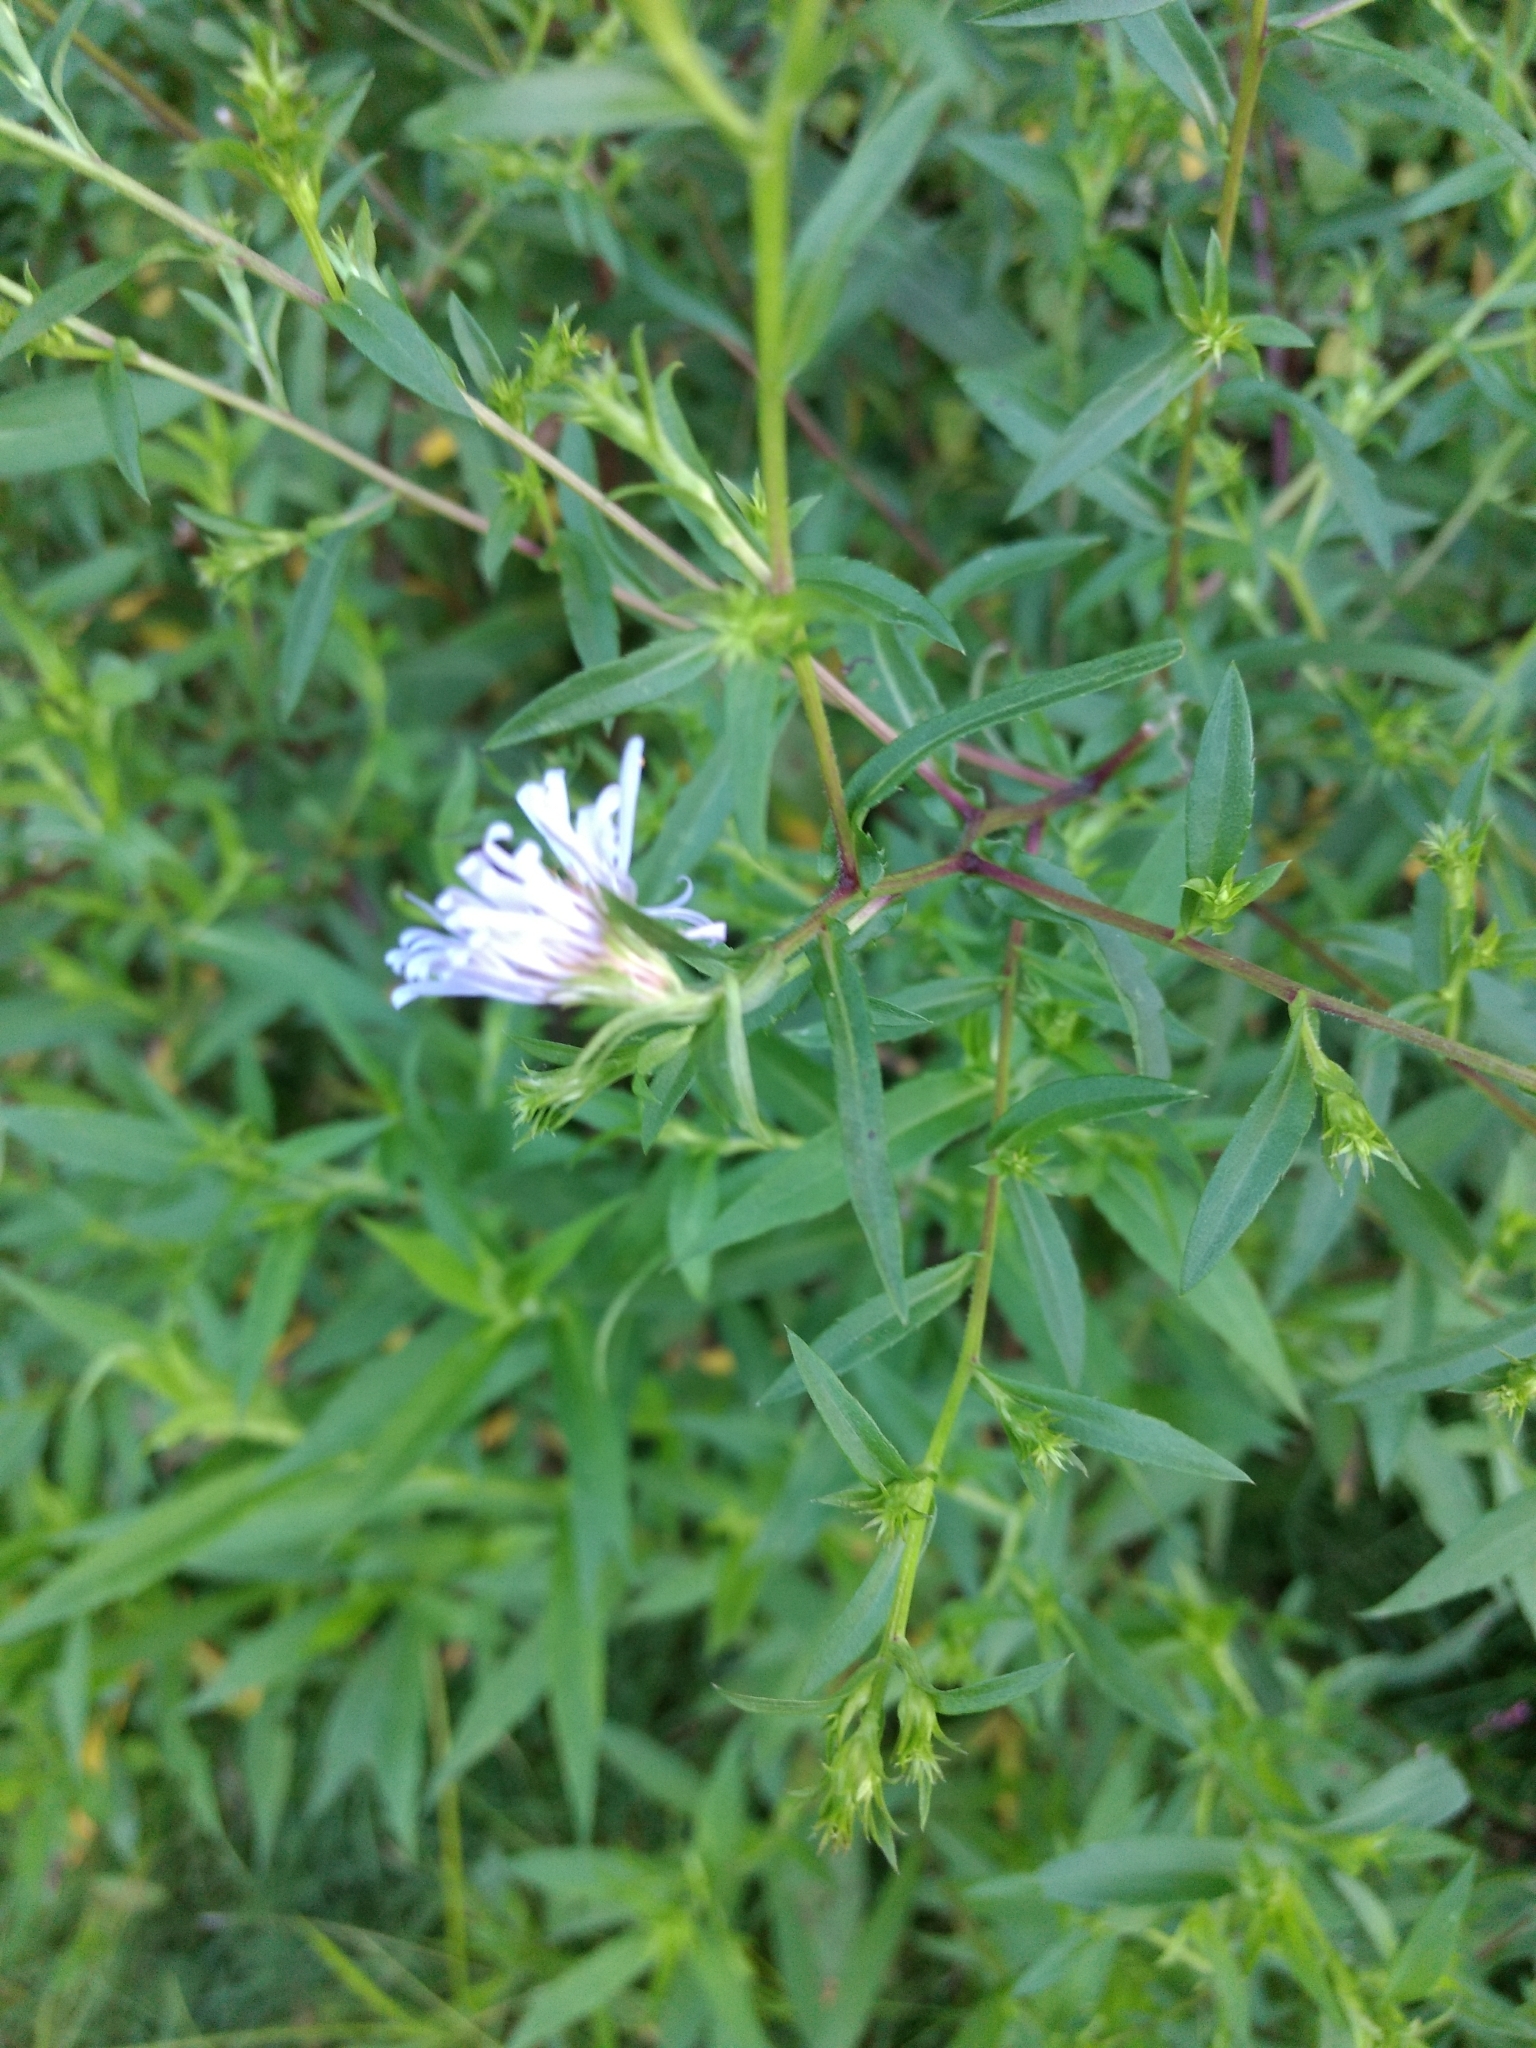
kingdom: Plantae
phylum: Tracheophyta
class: Magnoliopsida
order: Asterales
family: Asteraceae
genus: Symphyotrichum
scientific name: Symphyotrichum puniceum
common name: Bog aster
